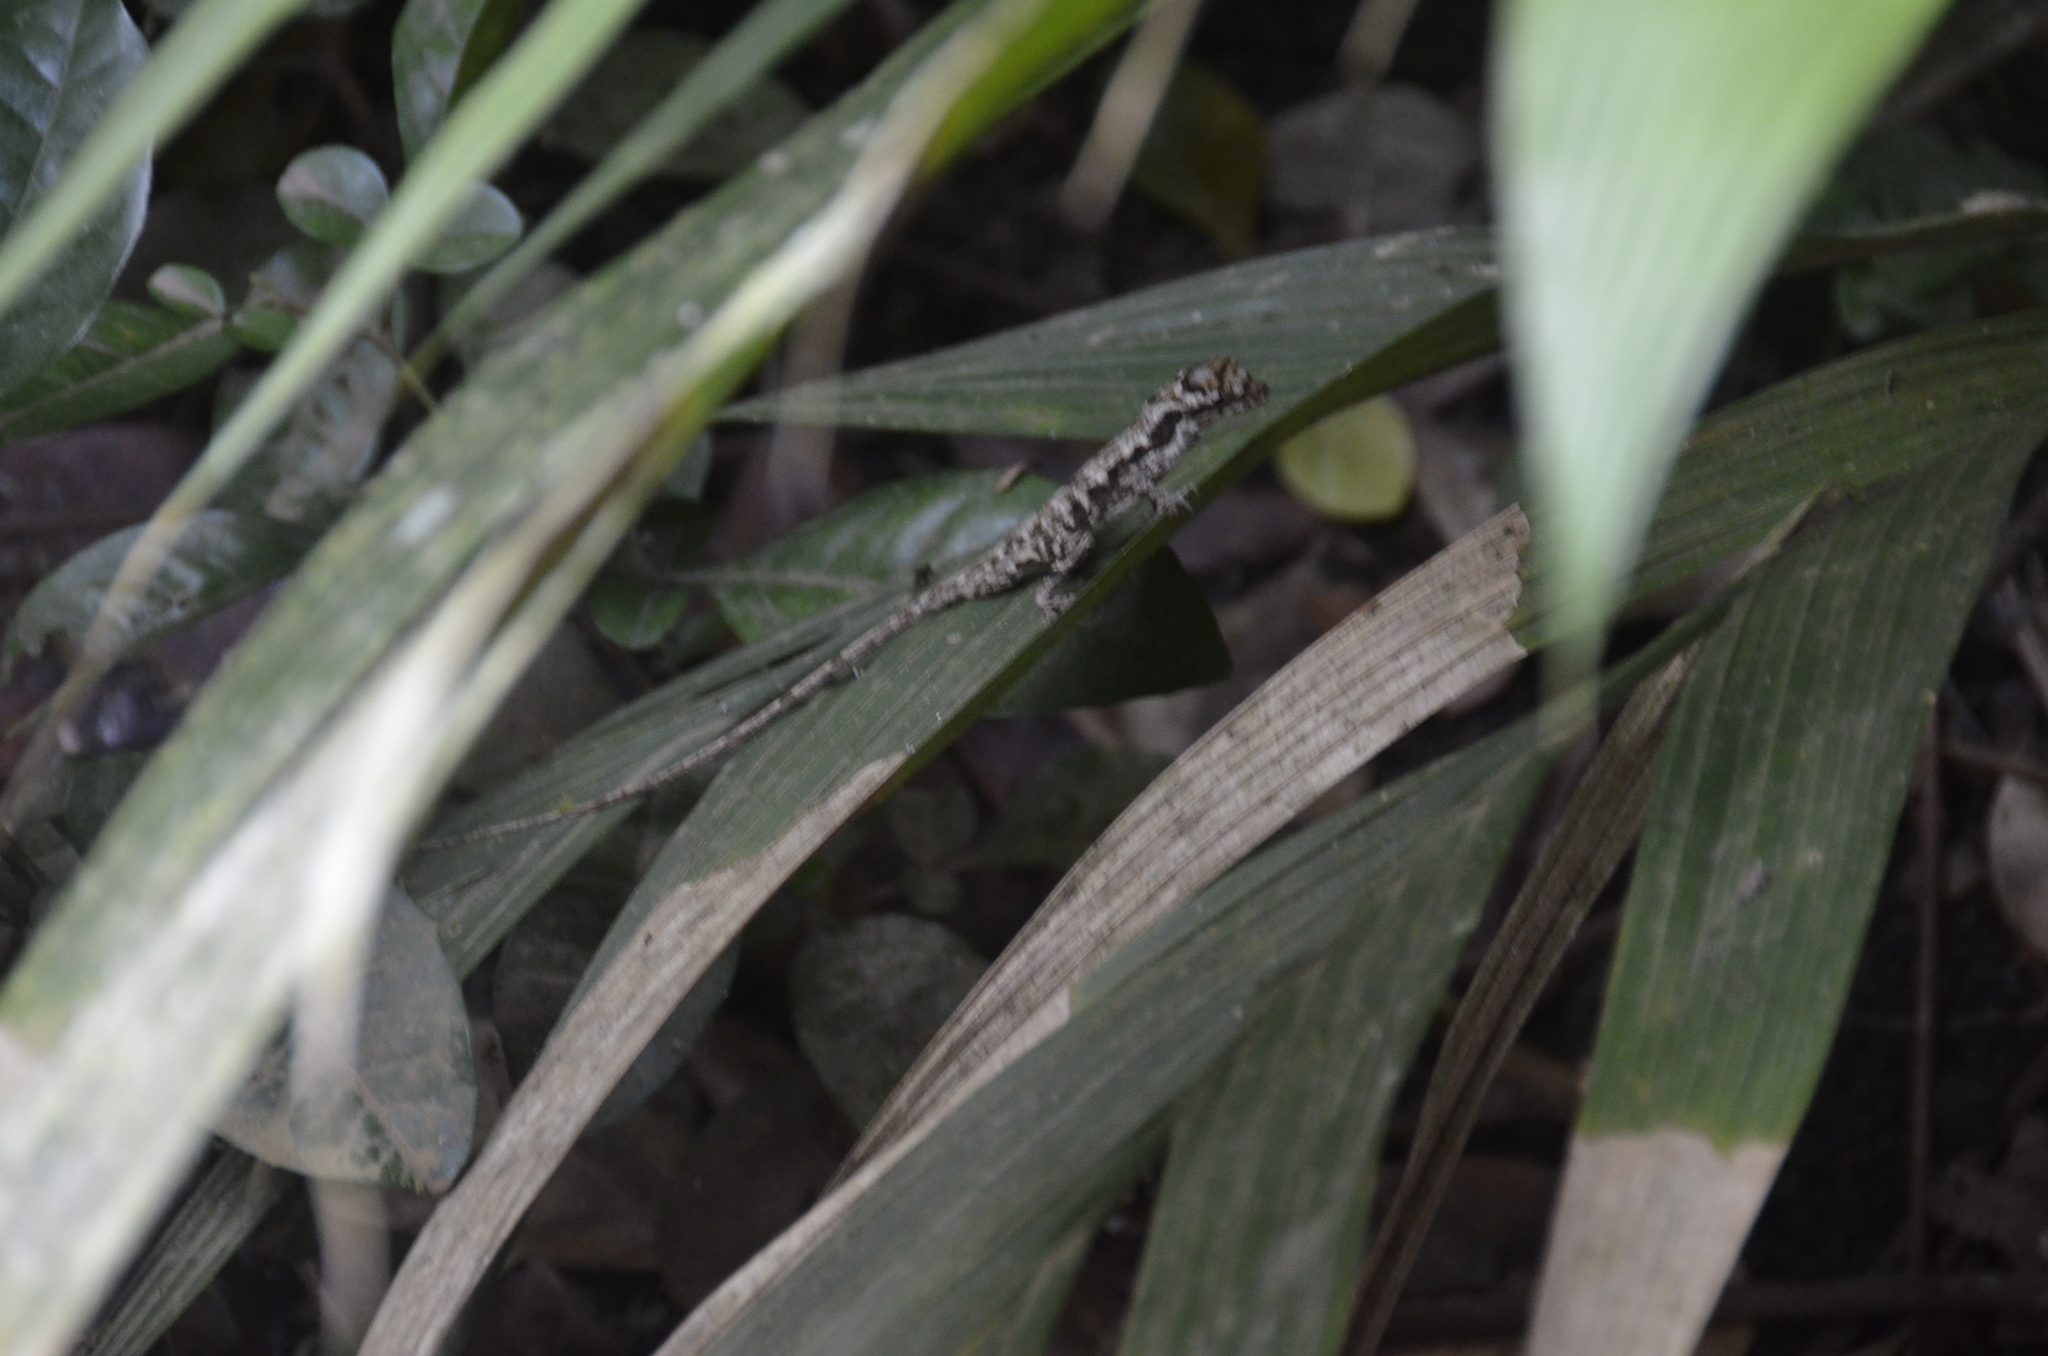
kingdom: Animalia
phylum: Chordata
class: Squamata
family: Dactyloidae
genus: Anolis
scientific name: Anolis humilis
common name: Humble anole
